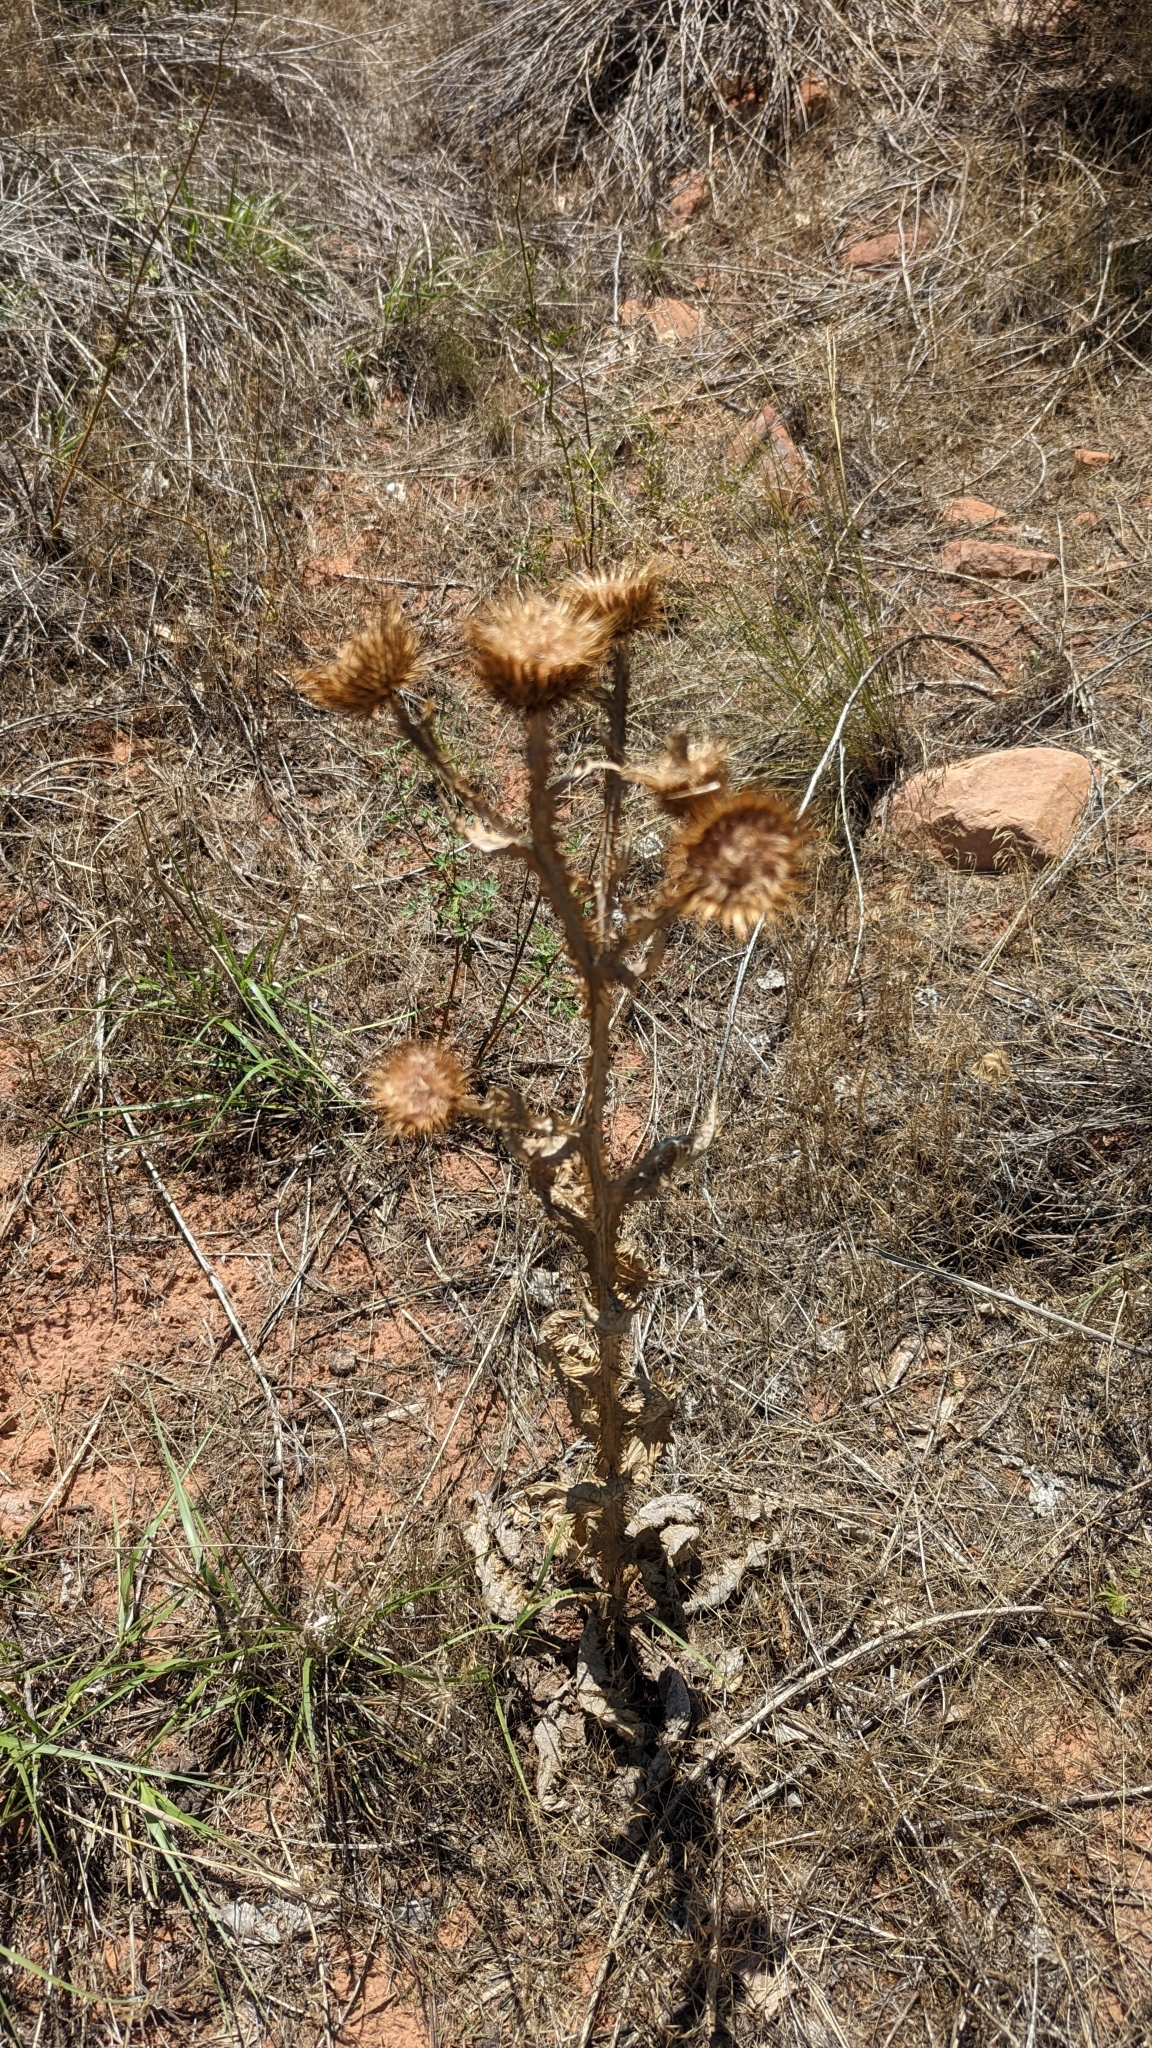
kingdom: Plantae
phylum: Tracheophyta
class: Magnoliopsida
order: Asterales
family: Asteraceae
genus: Onopordum
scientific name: Onopordum acanthium
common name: Scotch thistle
